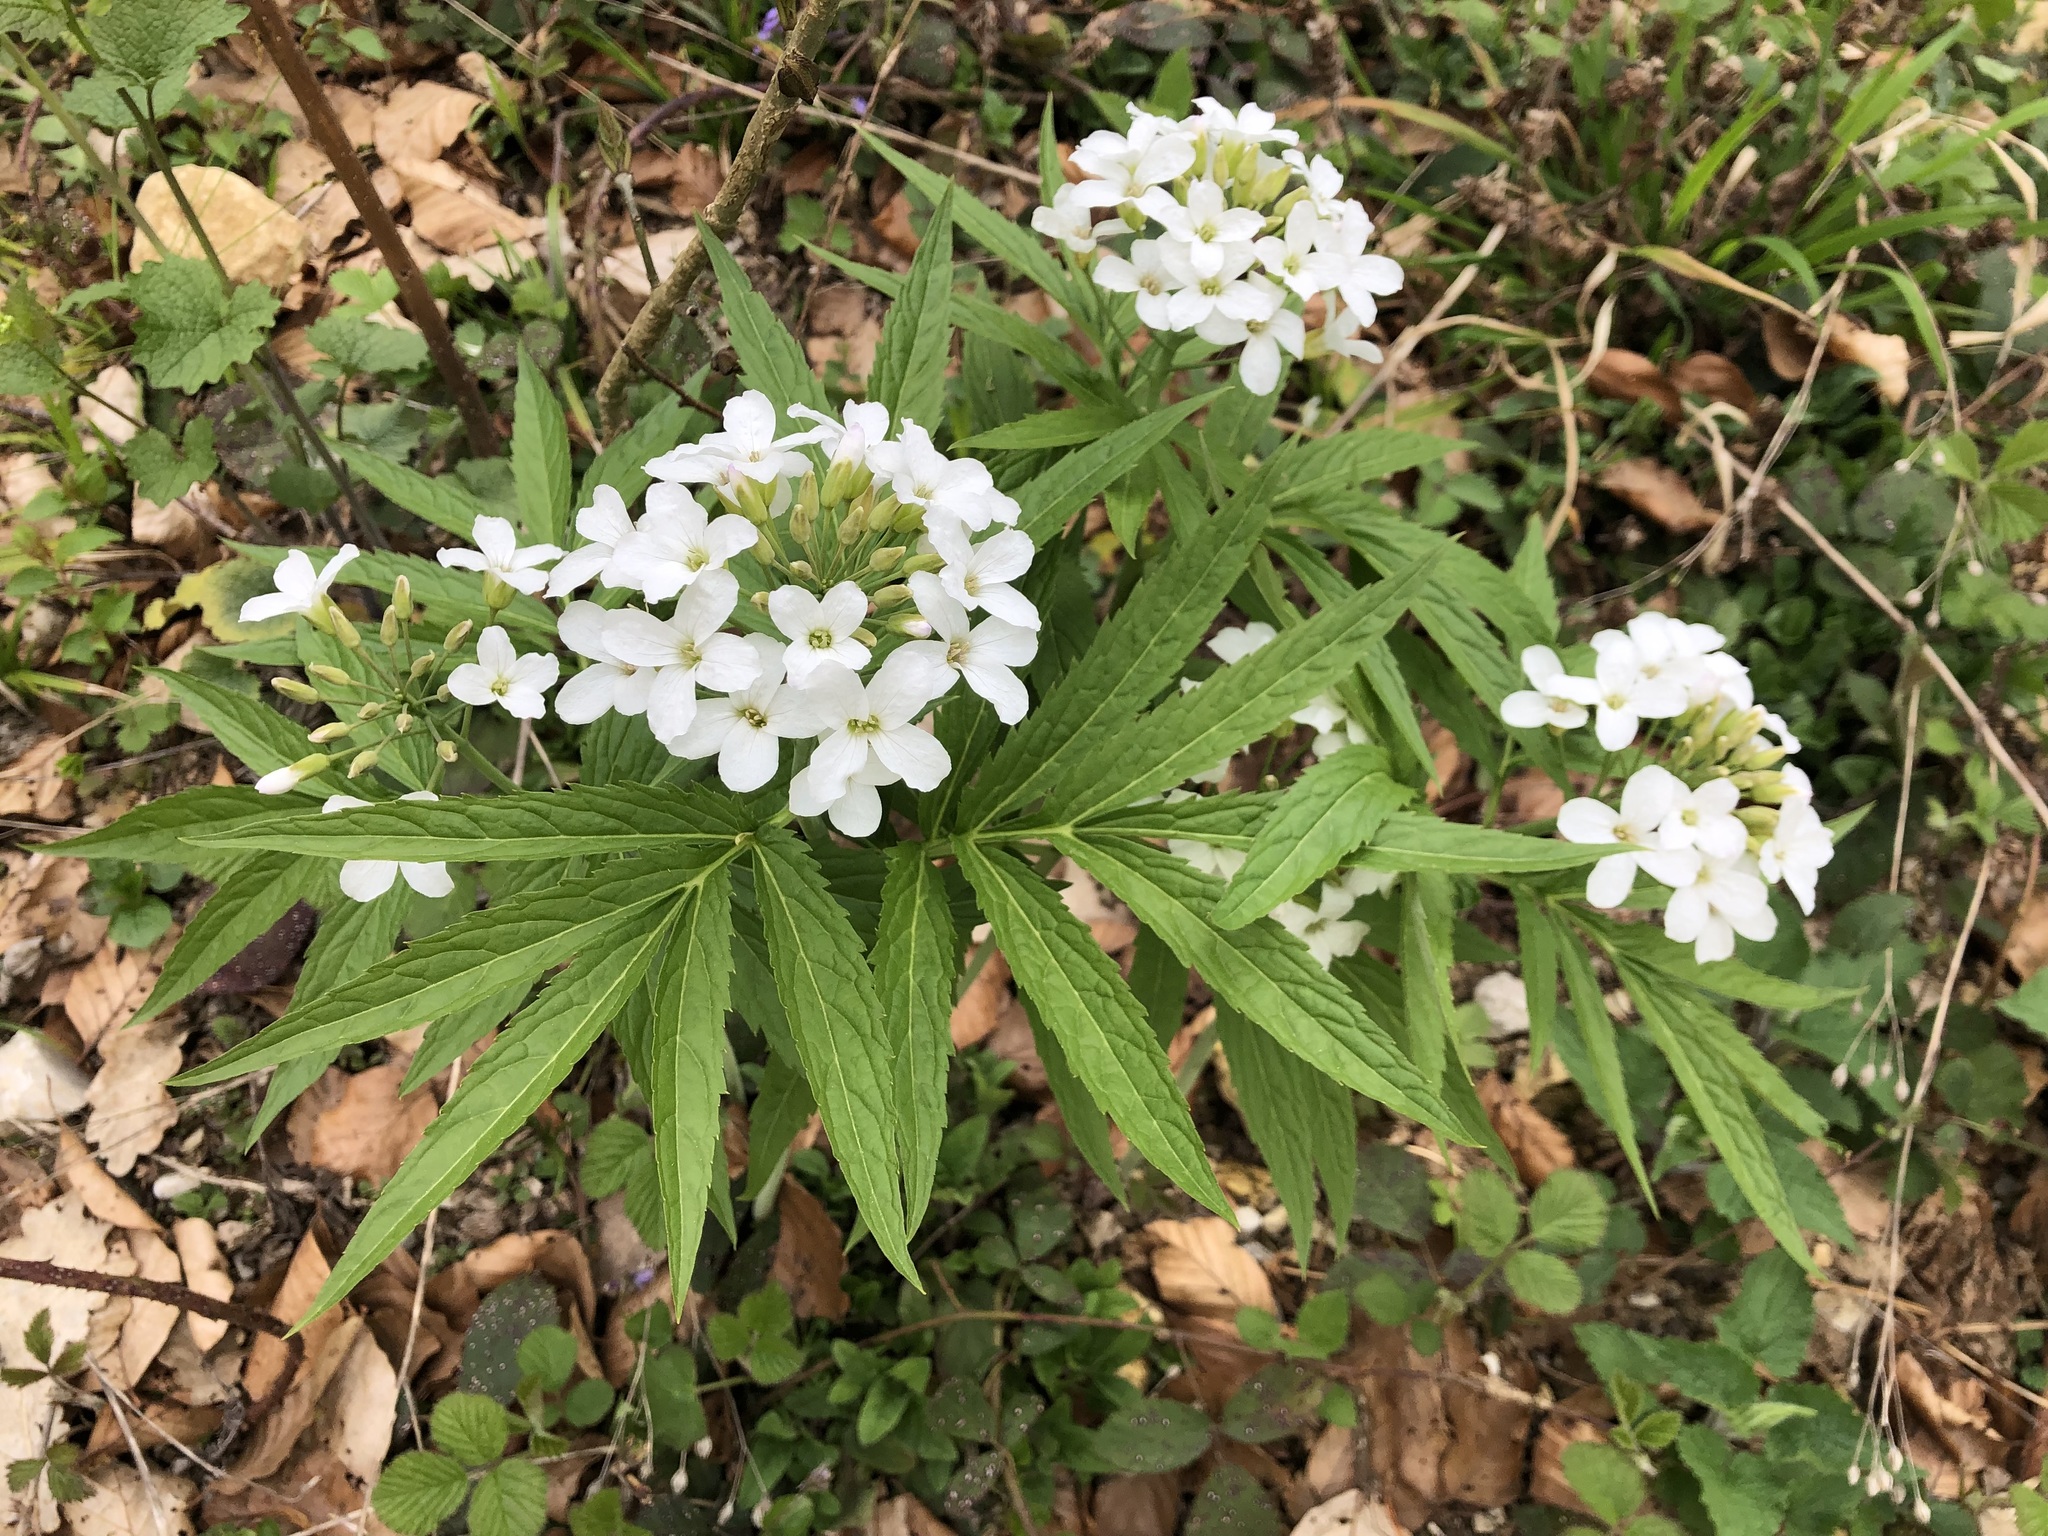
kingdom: Plantae
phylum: Tracheophyta
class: Magnoliopsida
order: Brassicales
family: Brassicaceae
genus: Cardamine
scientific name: Cardamine heptaphylla
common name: Pinnate coralroot
